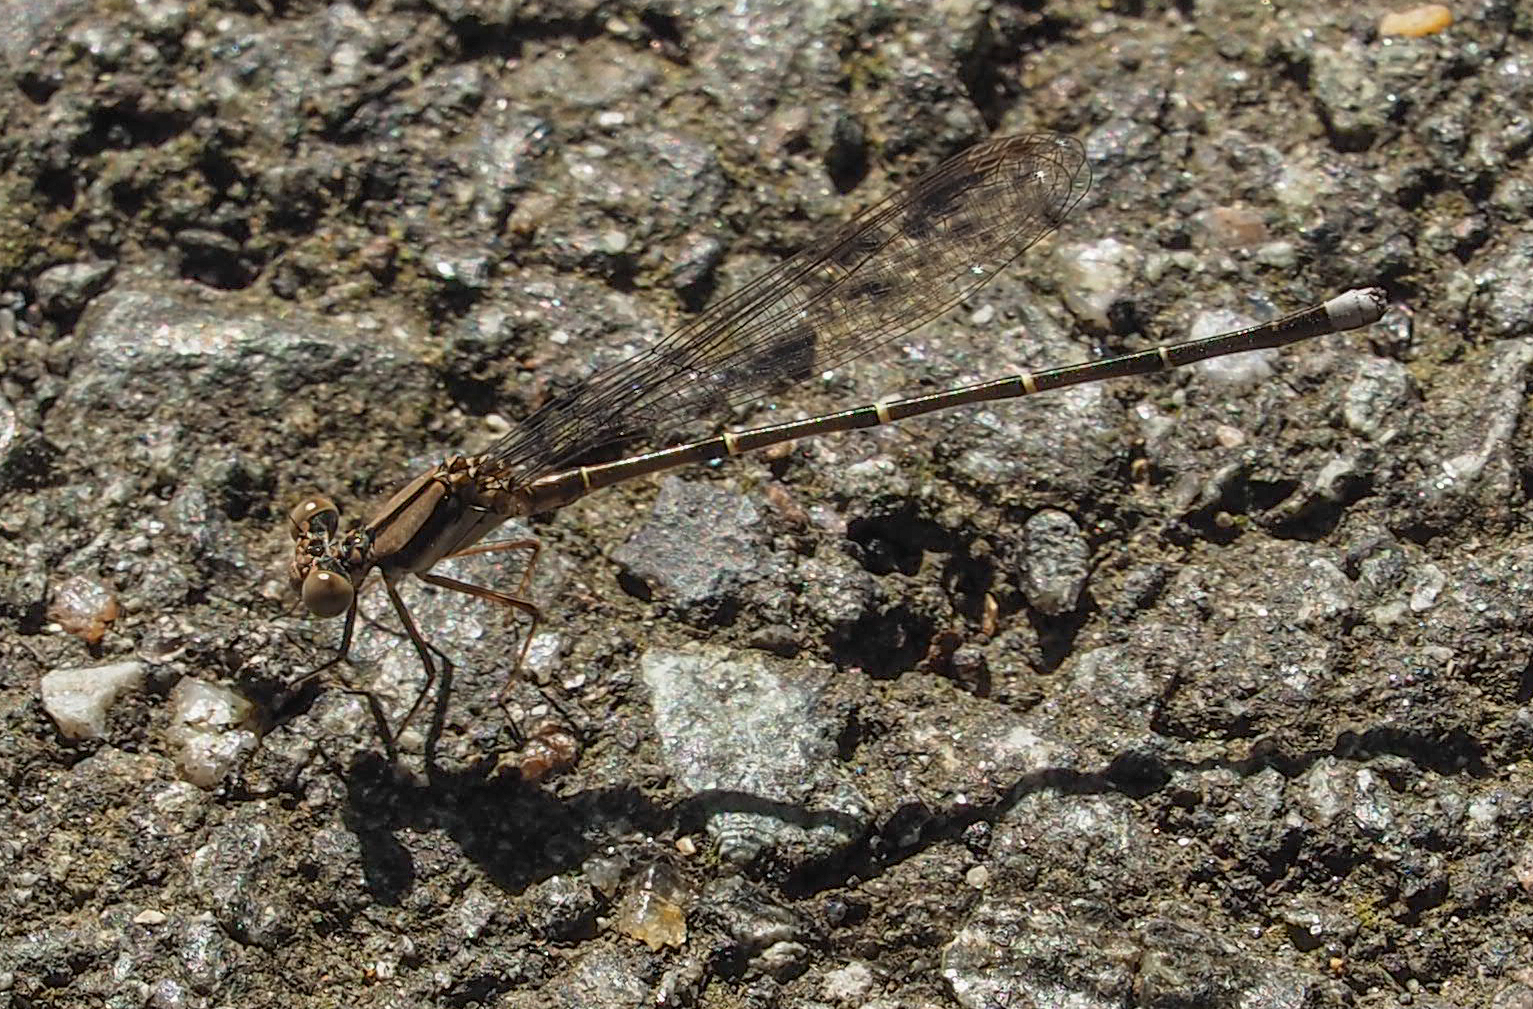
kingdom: Animalia
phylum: Arthropoda
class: Insecta
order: Odonata
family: Coenagrionidae
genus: Argia
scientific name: Argia tibialis
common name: Blue-tipped dancer
